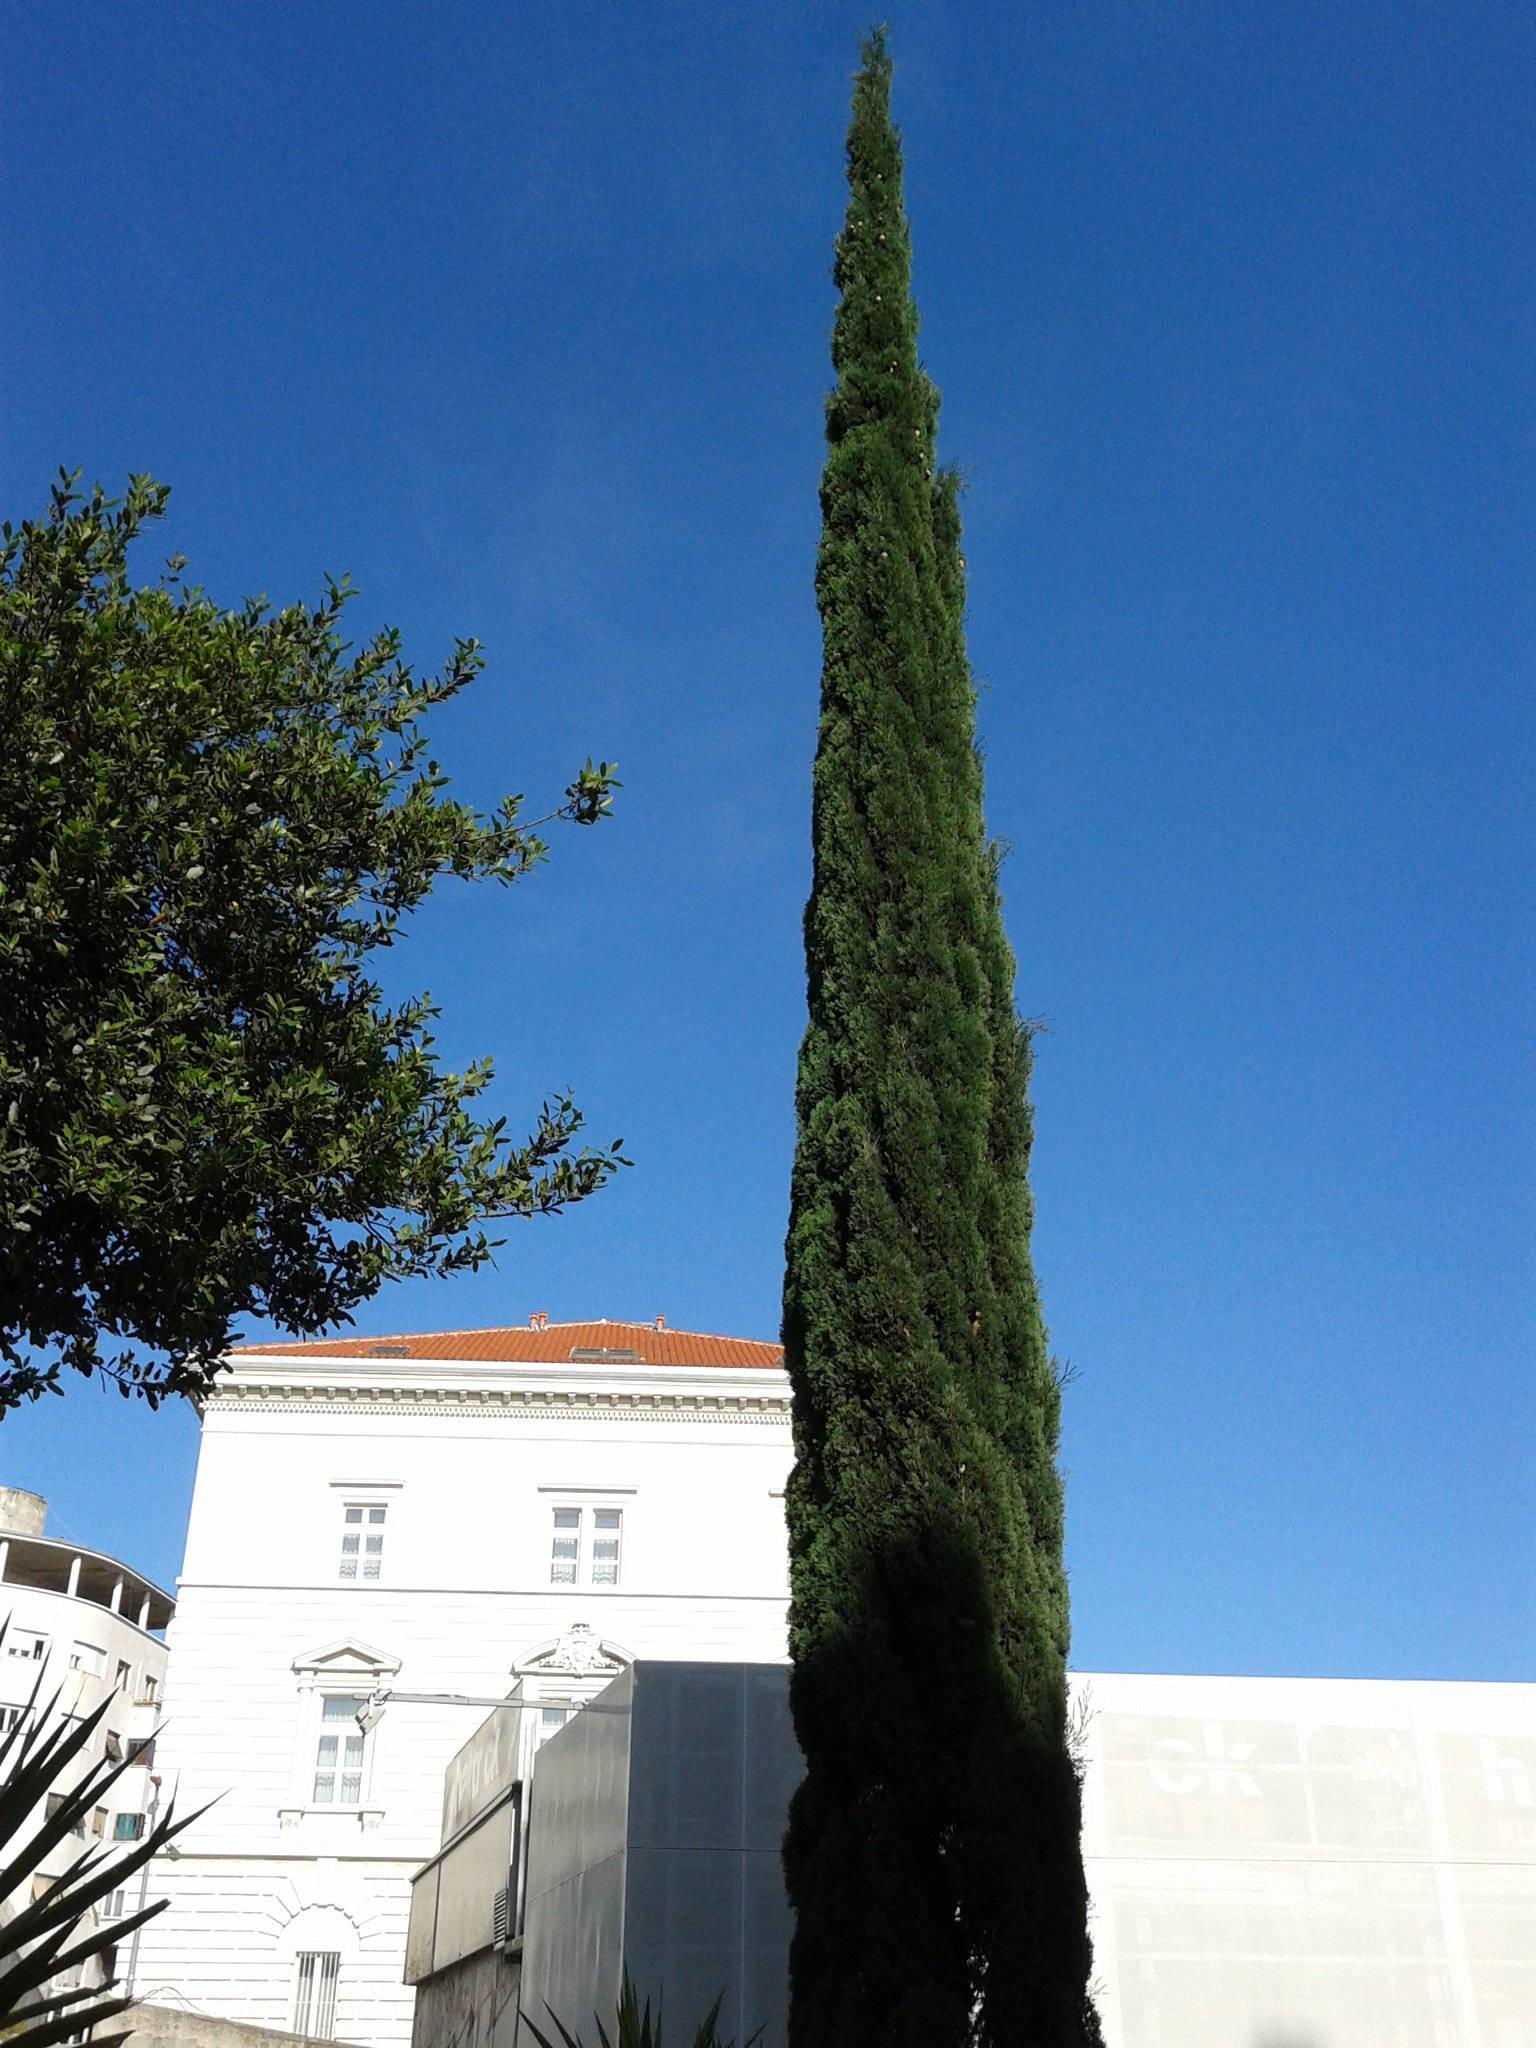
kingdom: Plantae
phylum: Tracheophyta
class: Pinopsida
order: Pinales
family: Cupressaceae
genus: Cupressus
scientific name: Cupressus sempervirens
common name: Italian cypress
